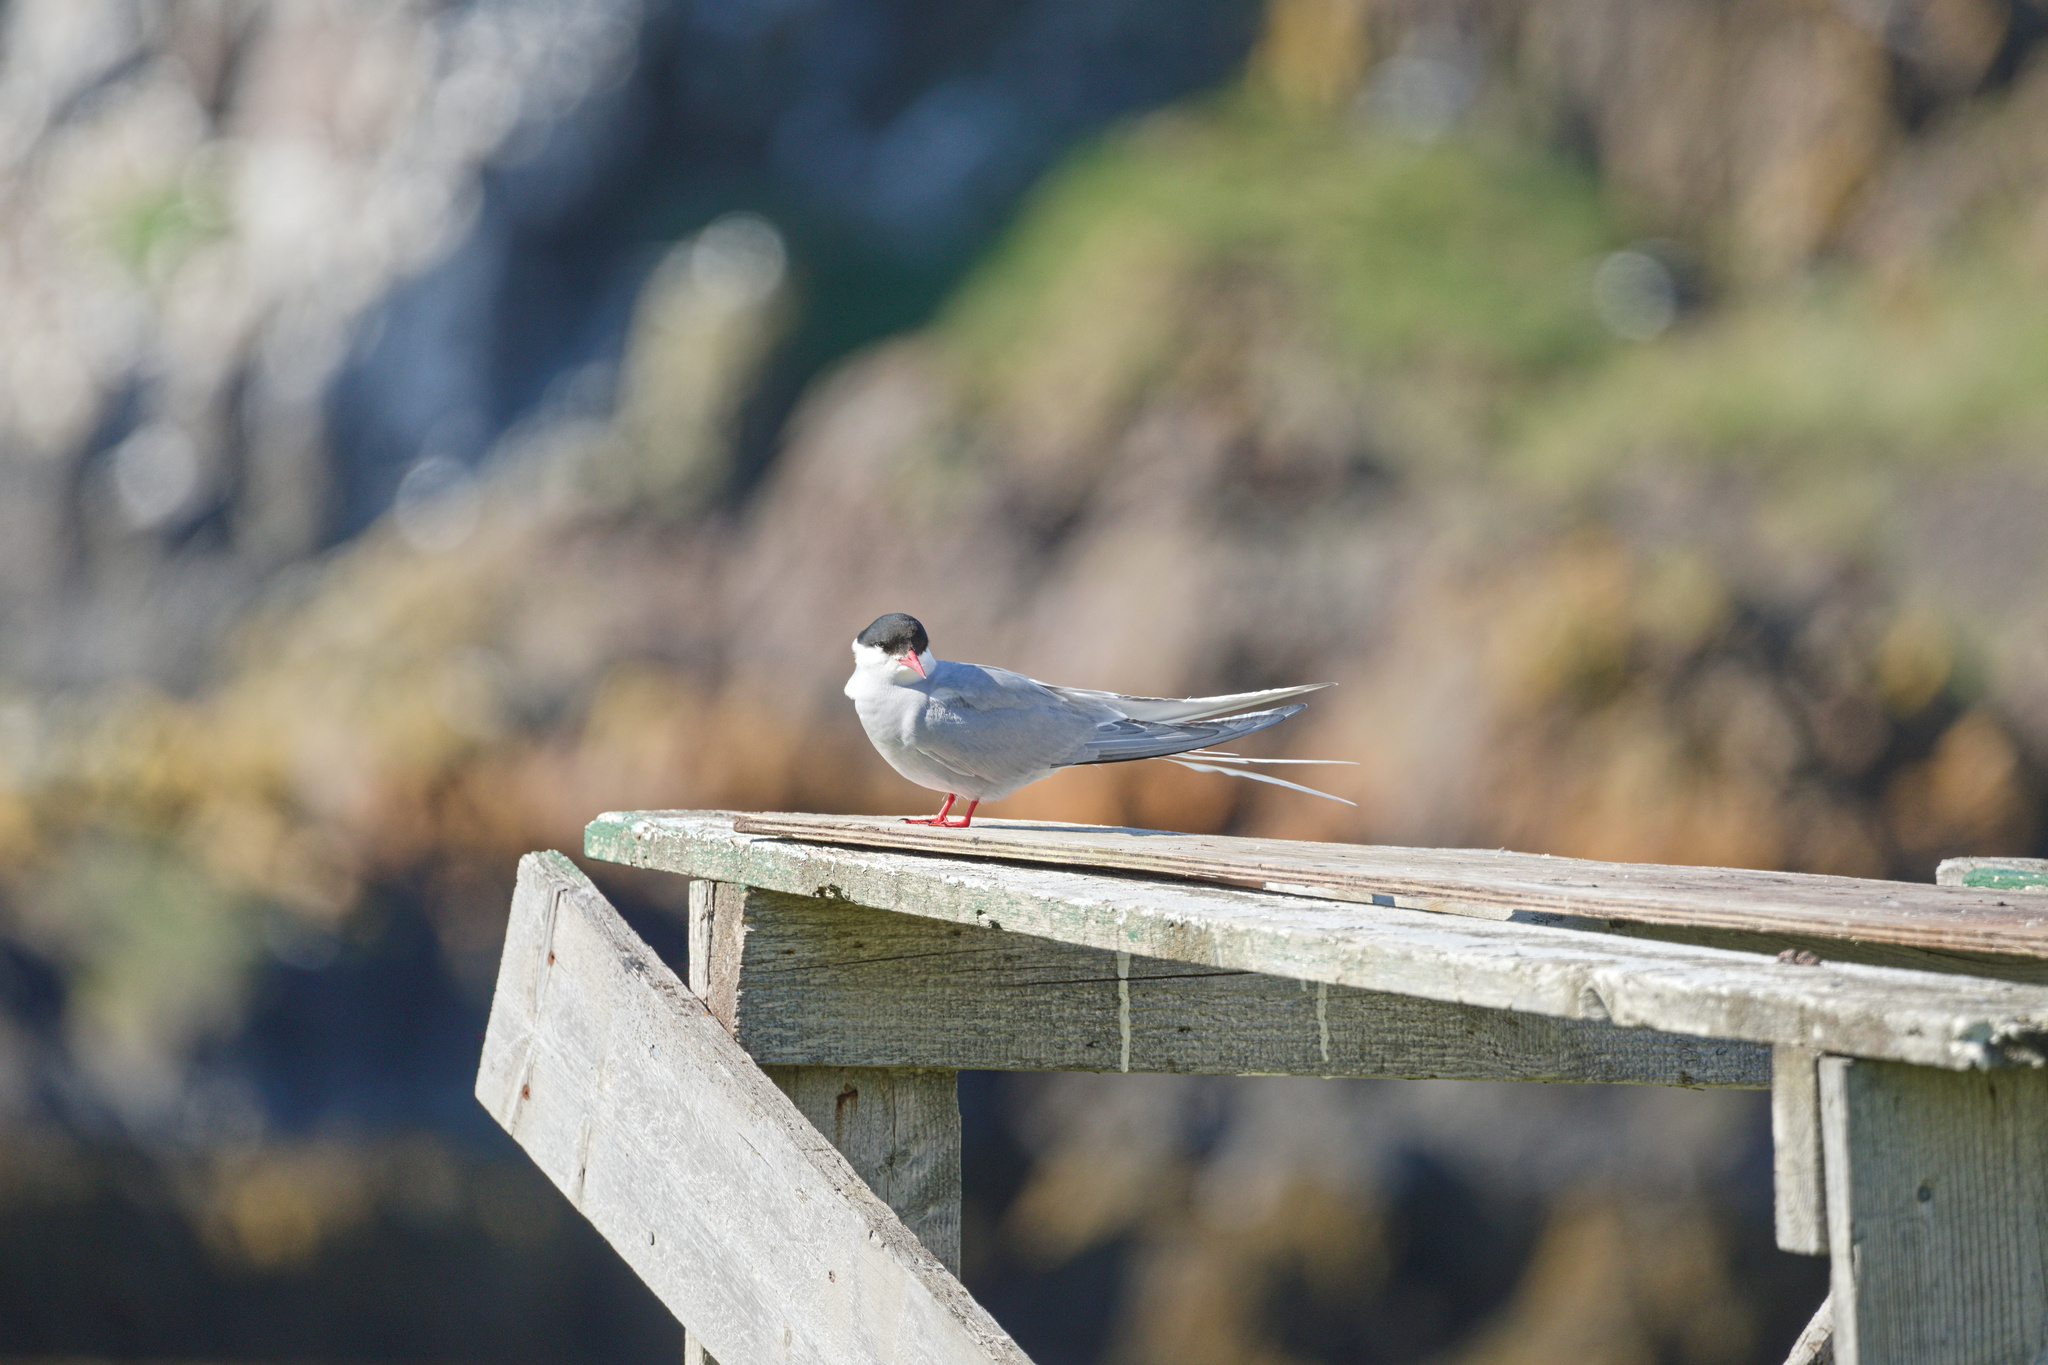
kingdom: Animalia
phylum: Chordata
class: Aves
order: Charadriiformes
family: Laridae
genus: Sterna
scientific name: Sterna paradisaea
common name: Arctic tern
